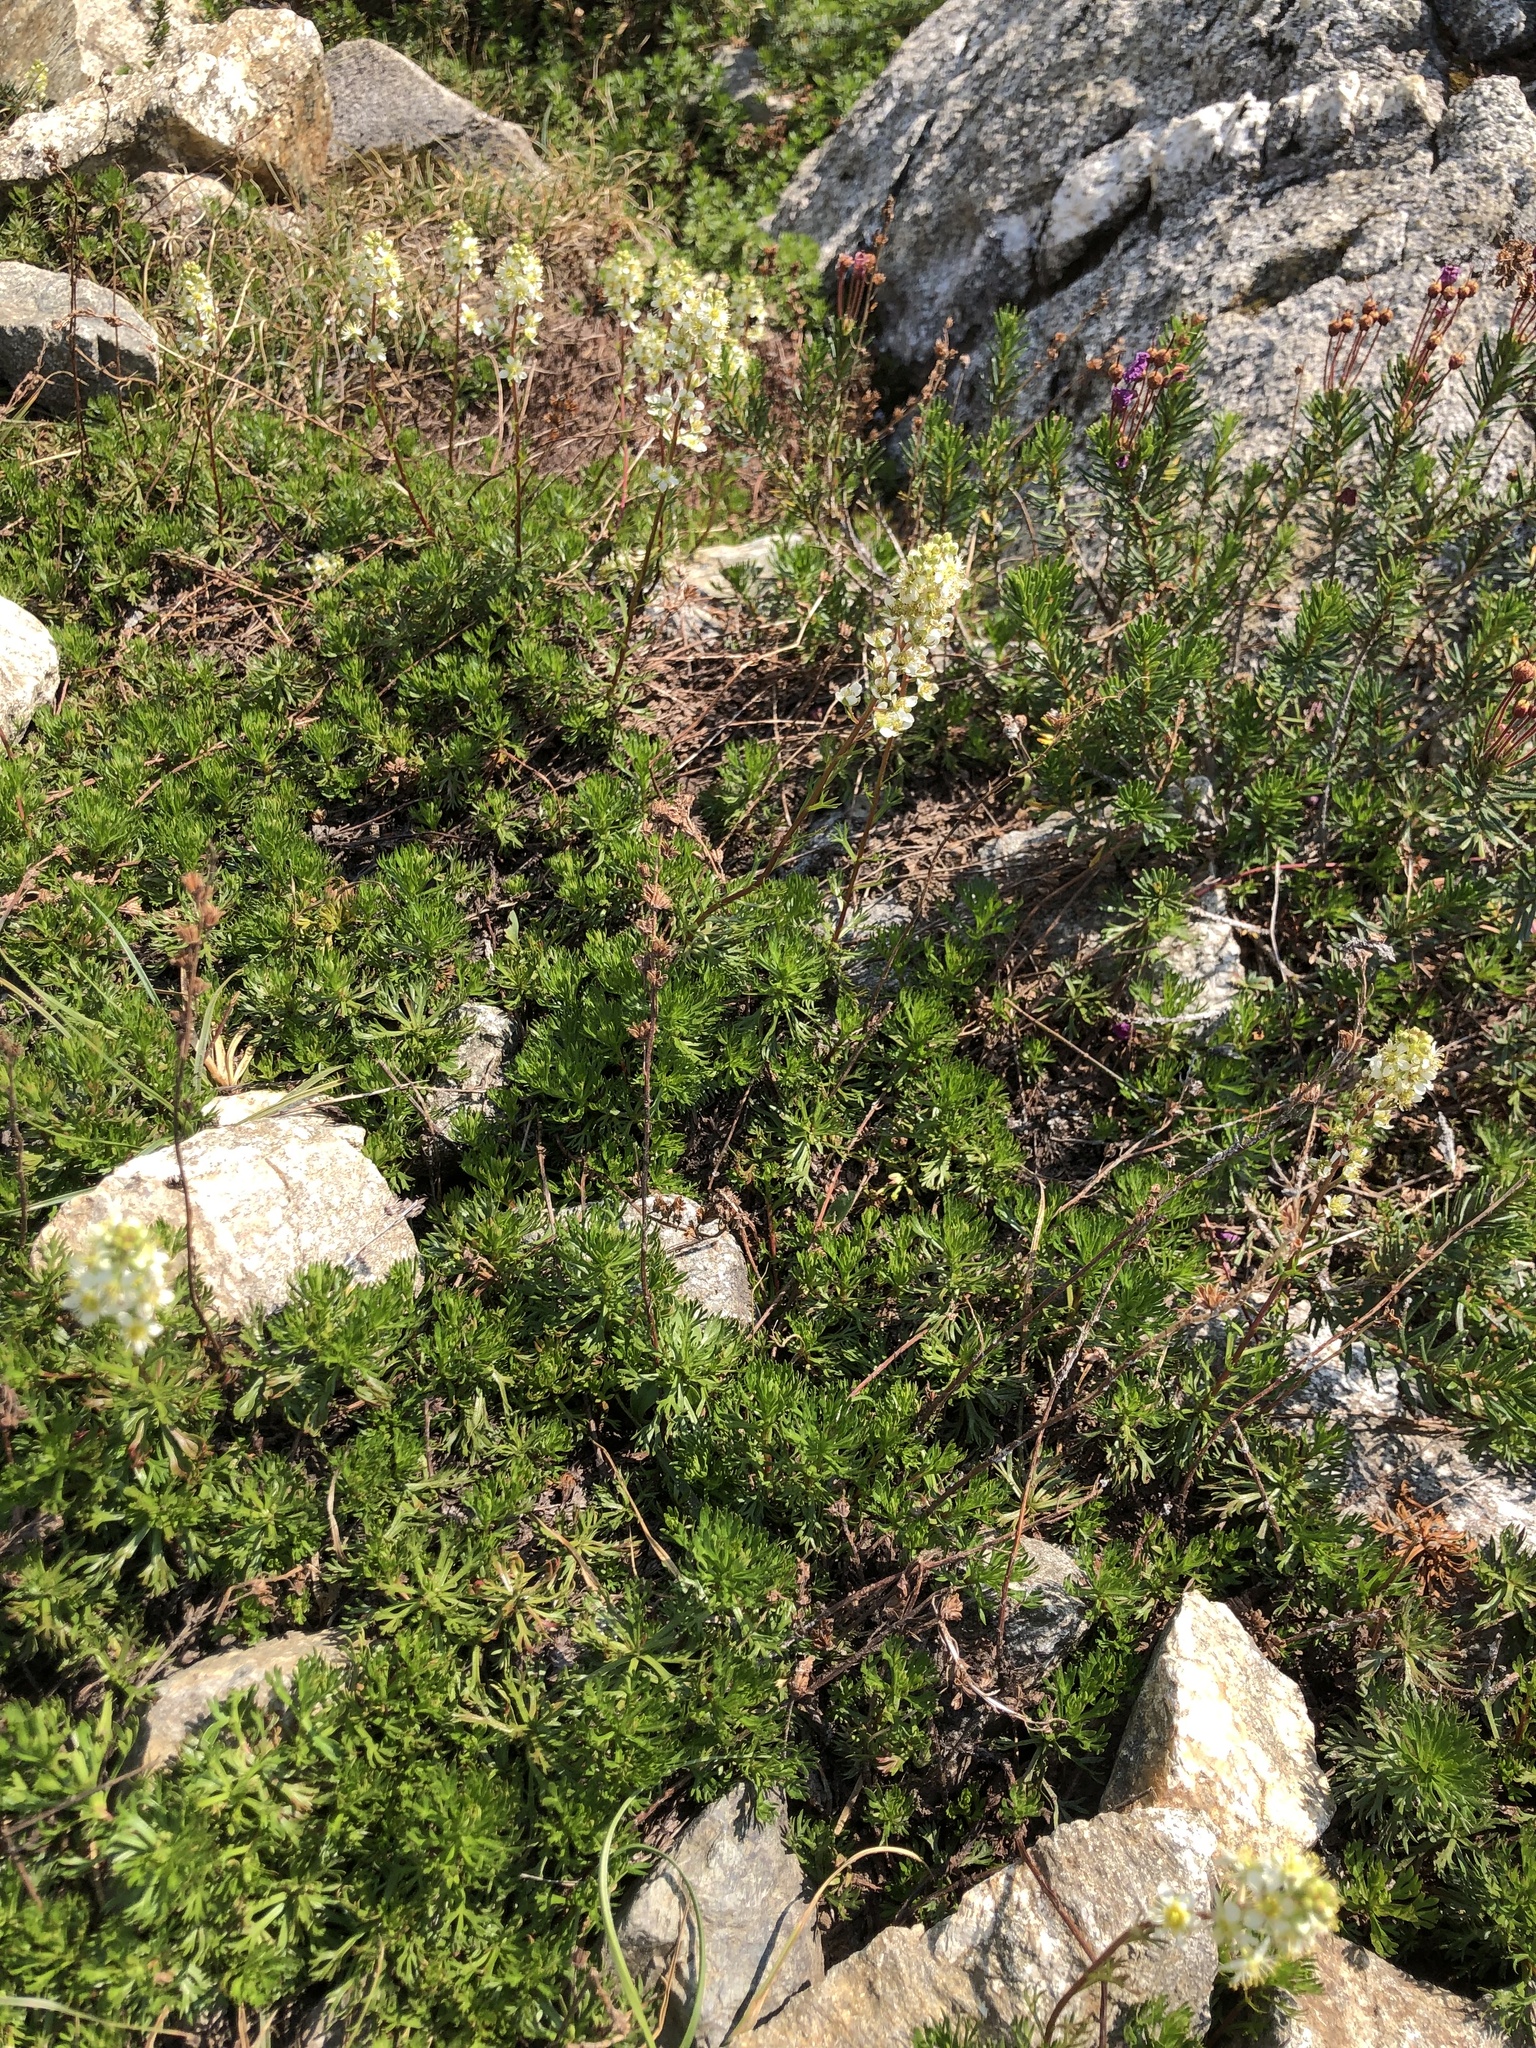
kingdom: Plantae
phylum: Tracheophyta
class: Magnoliopsida
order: Rosales
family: Rosaceae
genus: Luetkea
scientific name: Luetkea pectinata
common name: Partridgefoot
